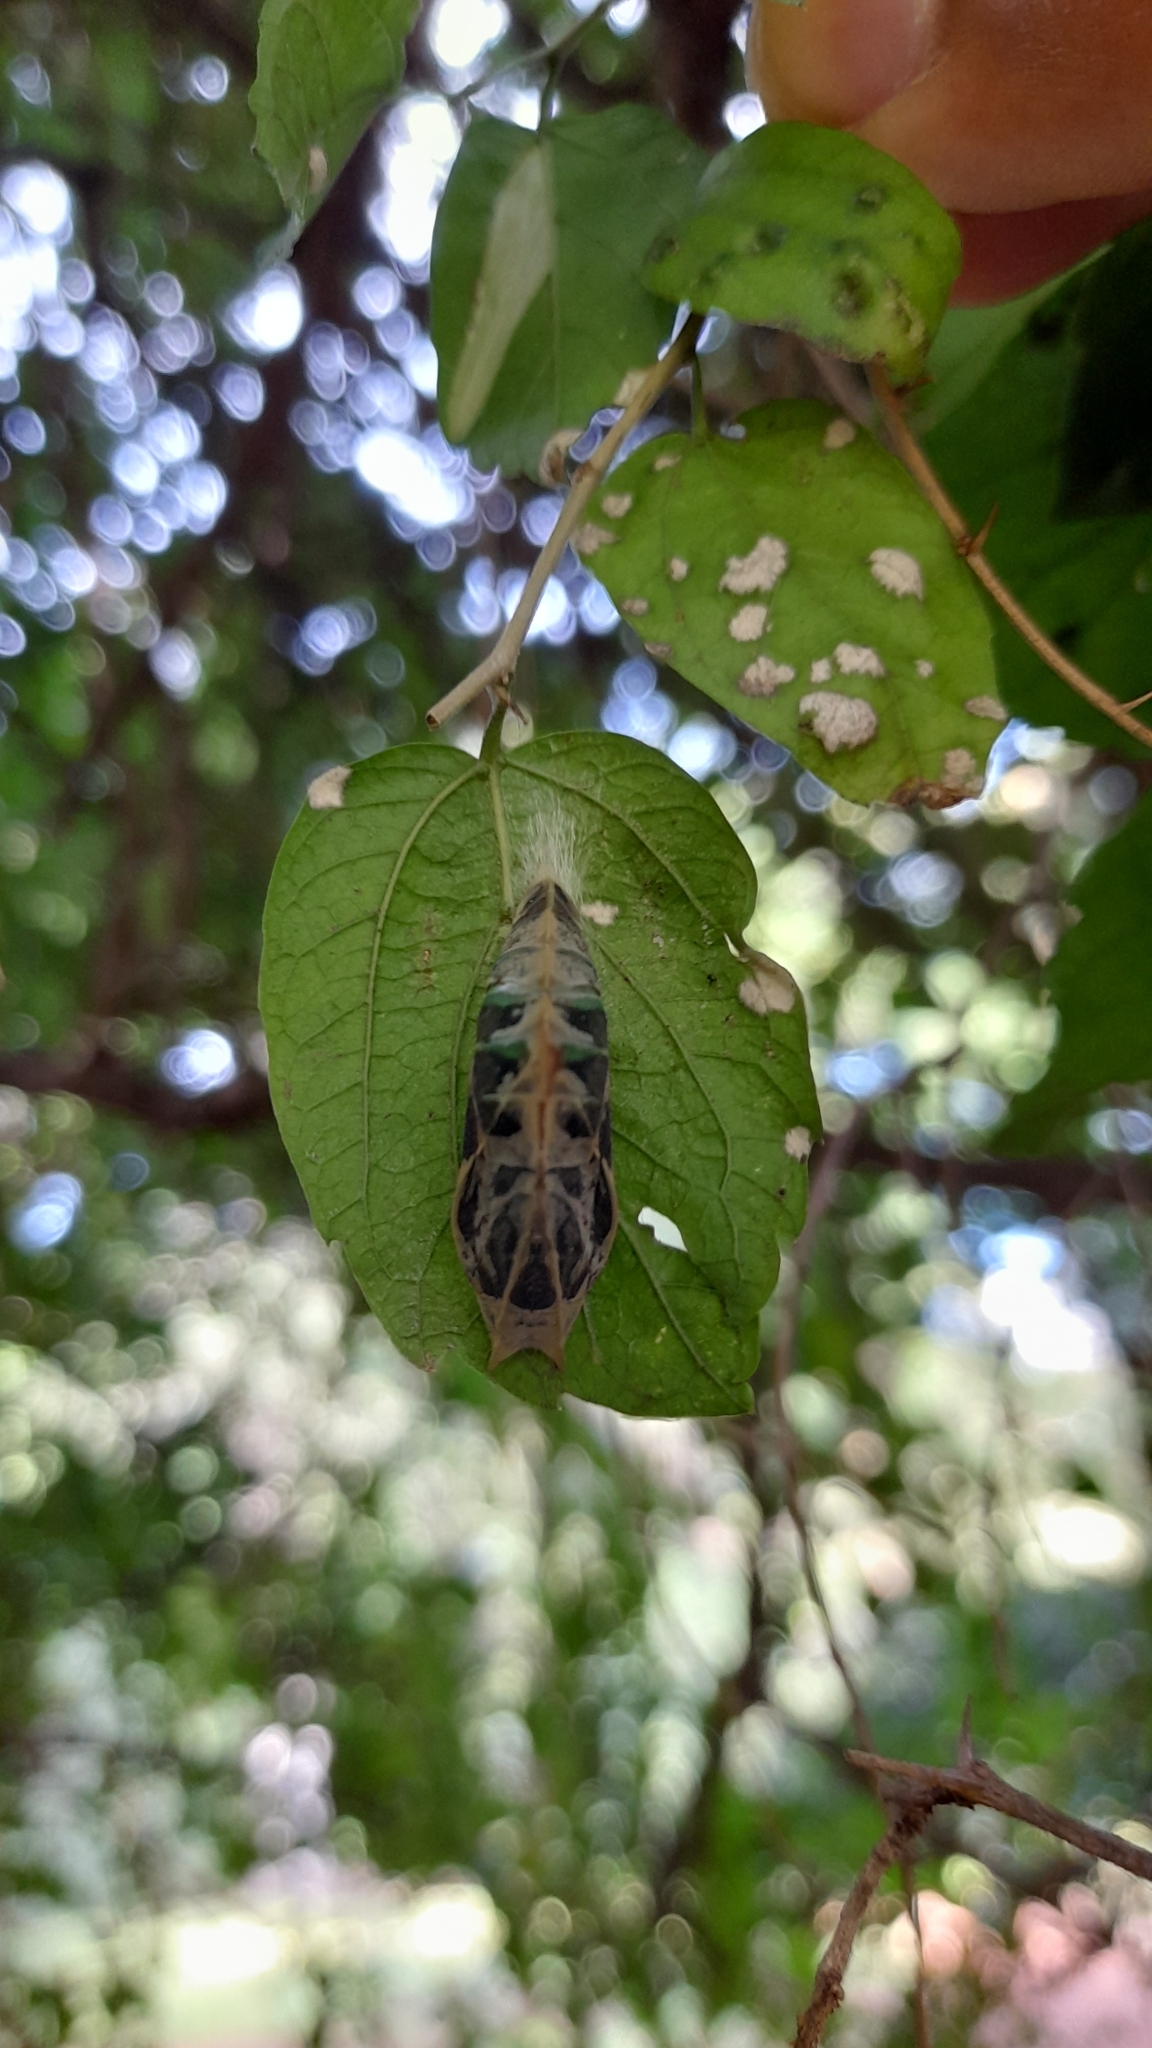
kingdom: Animalia
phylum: Arthropoda
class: Insecta
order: Lepidoptera
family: Nymphalidae
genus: Doxocopa
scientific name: Doxocopa laurentia
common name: Turquoise emperor
